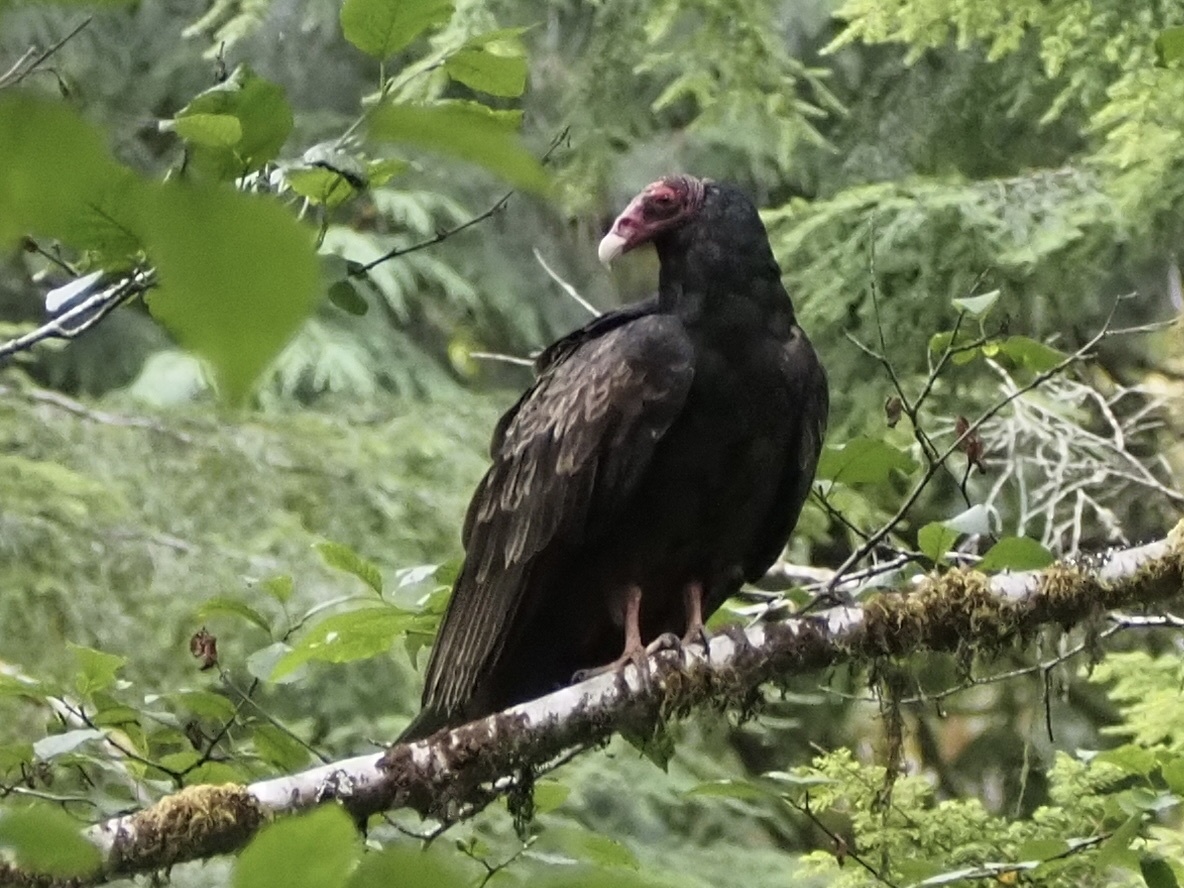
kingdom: Animalia
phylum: Chordata
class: Aves
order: Accipitriformes
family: Cathartidae
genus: Cathartes
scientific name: Cathartes aura
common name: Turkey vulture
